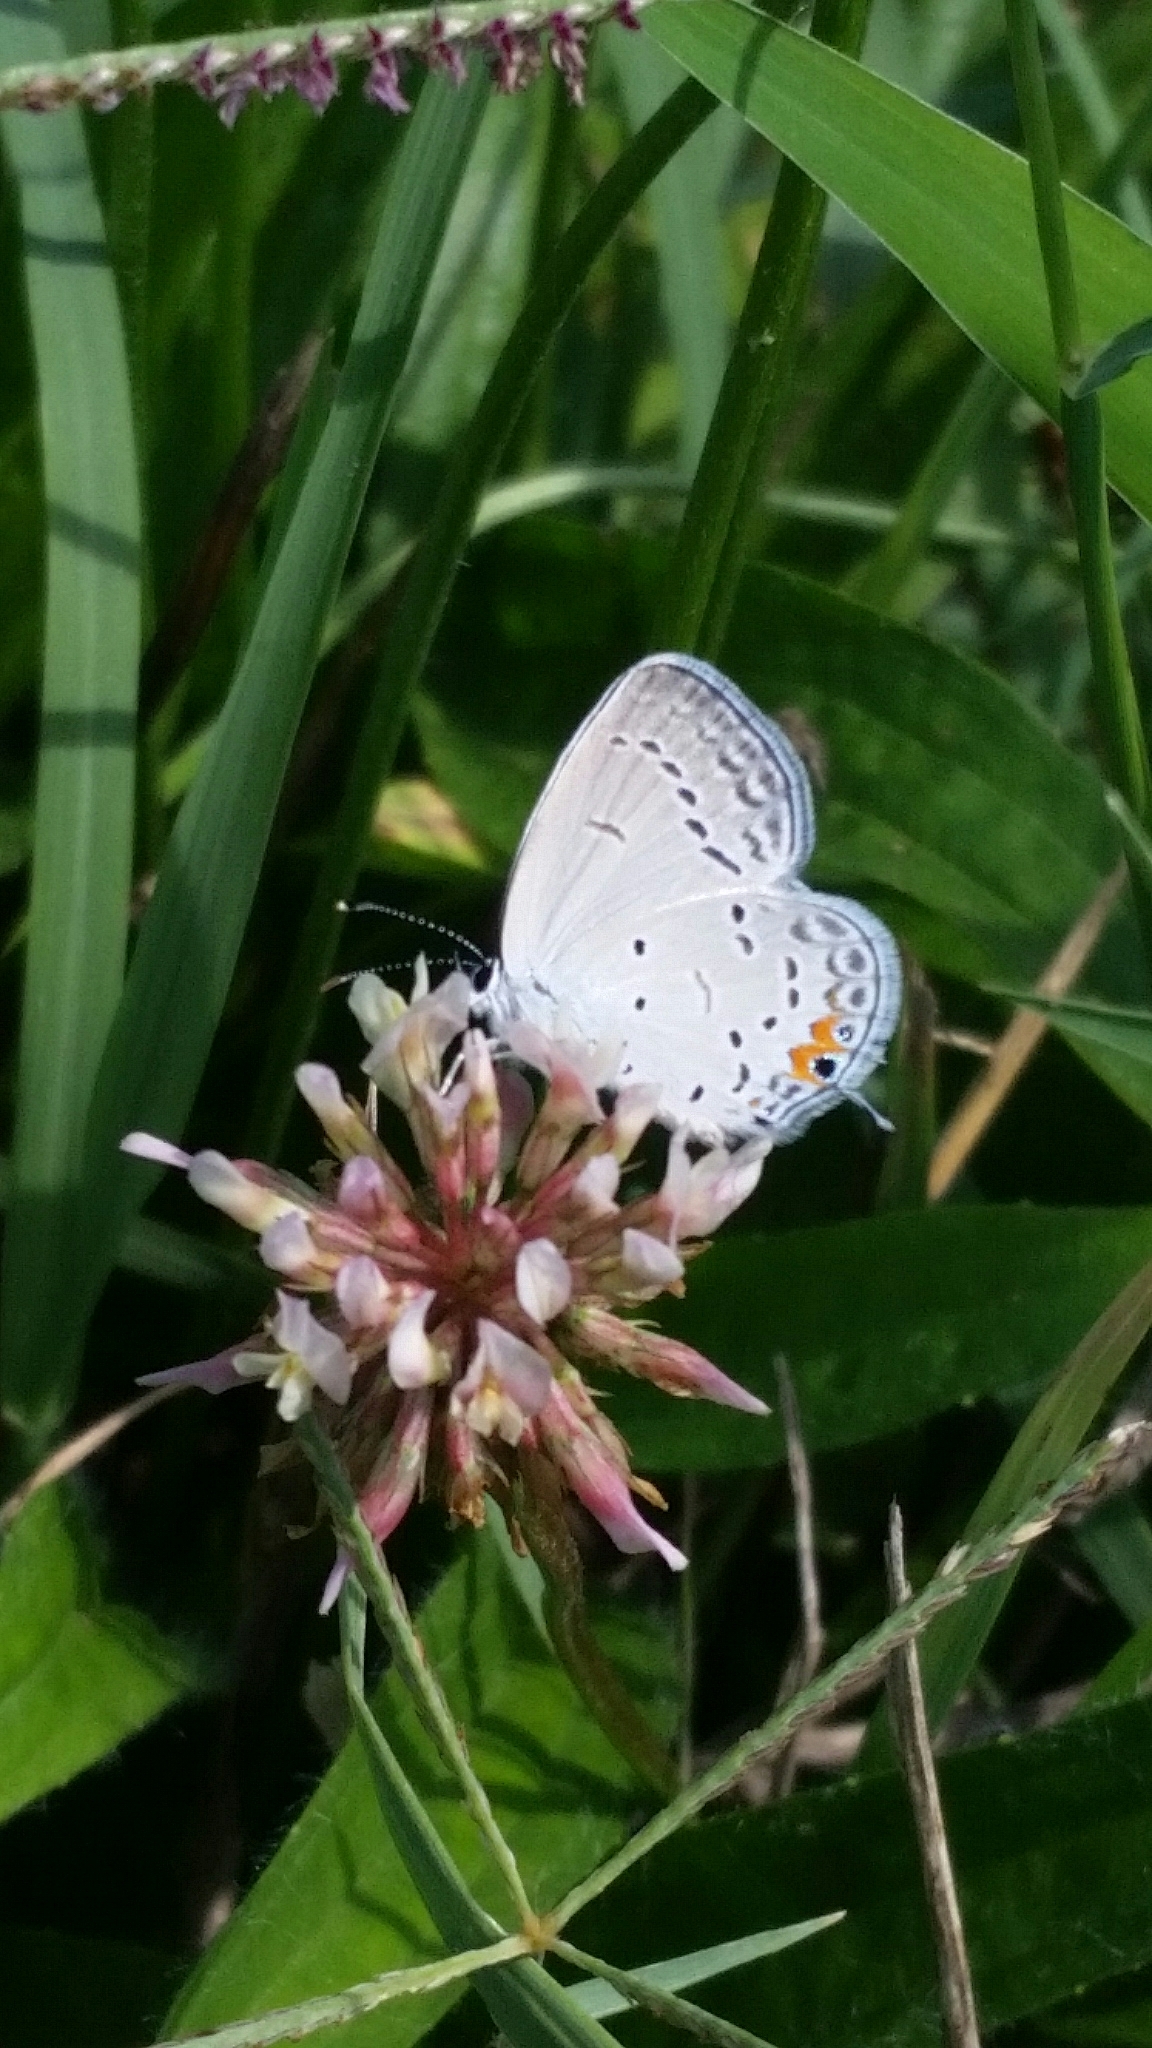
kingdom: Animalia
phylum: Arthropoda
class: Insecta
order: Lepidoptera
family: Lycaenidae
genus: Elkalyce
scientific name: Elkalyce comyntas
